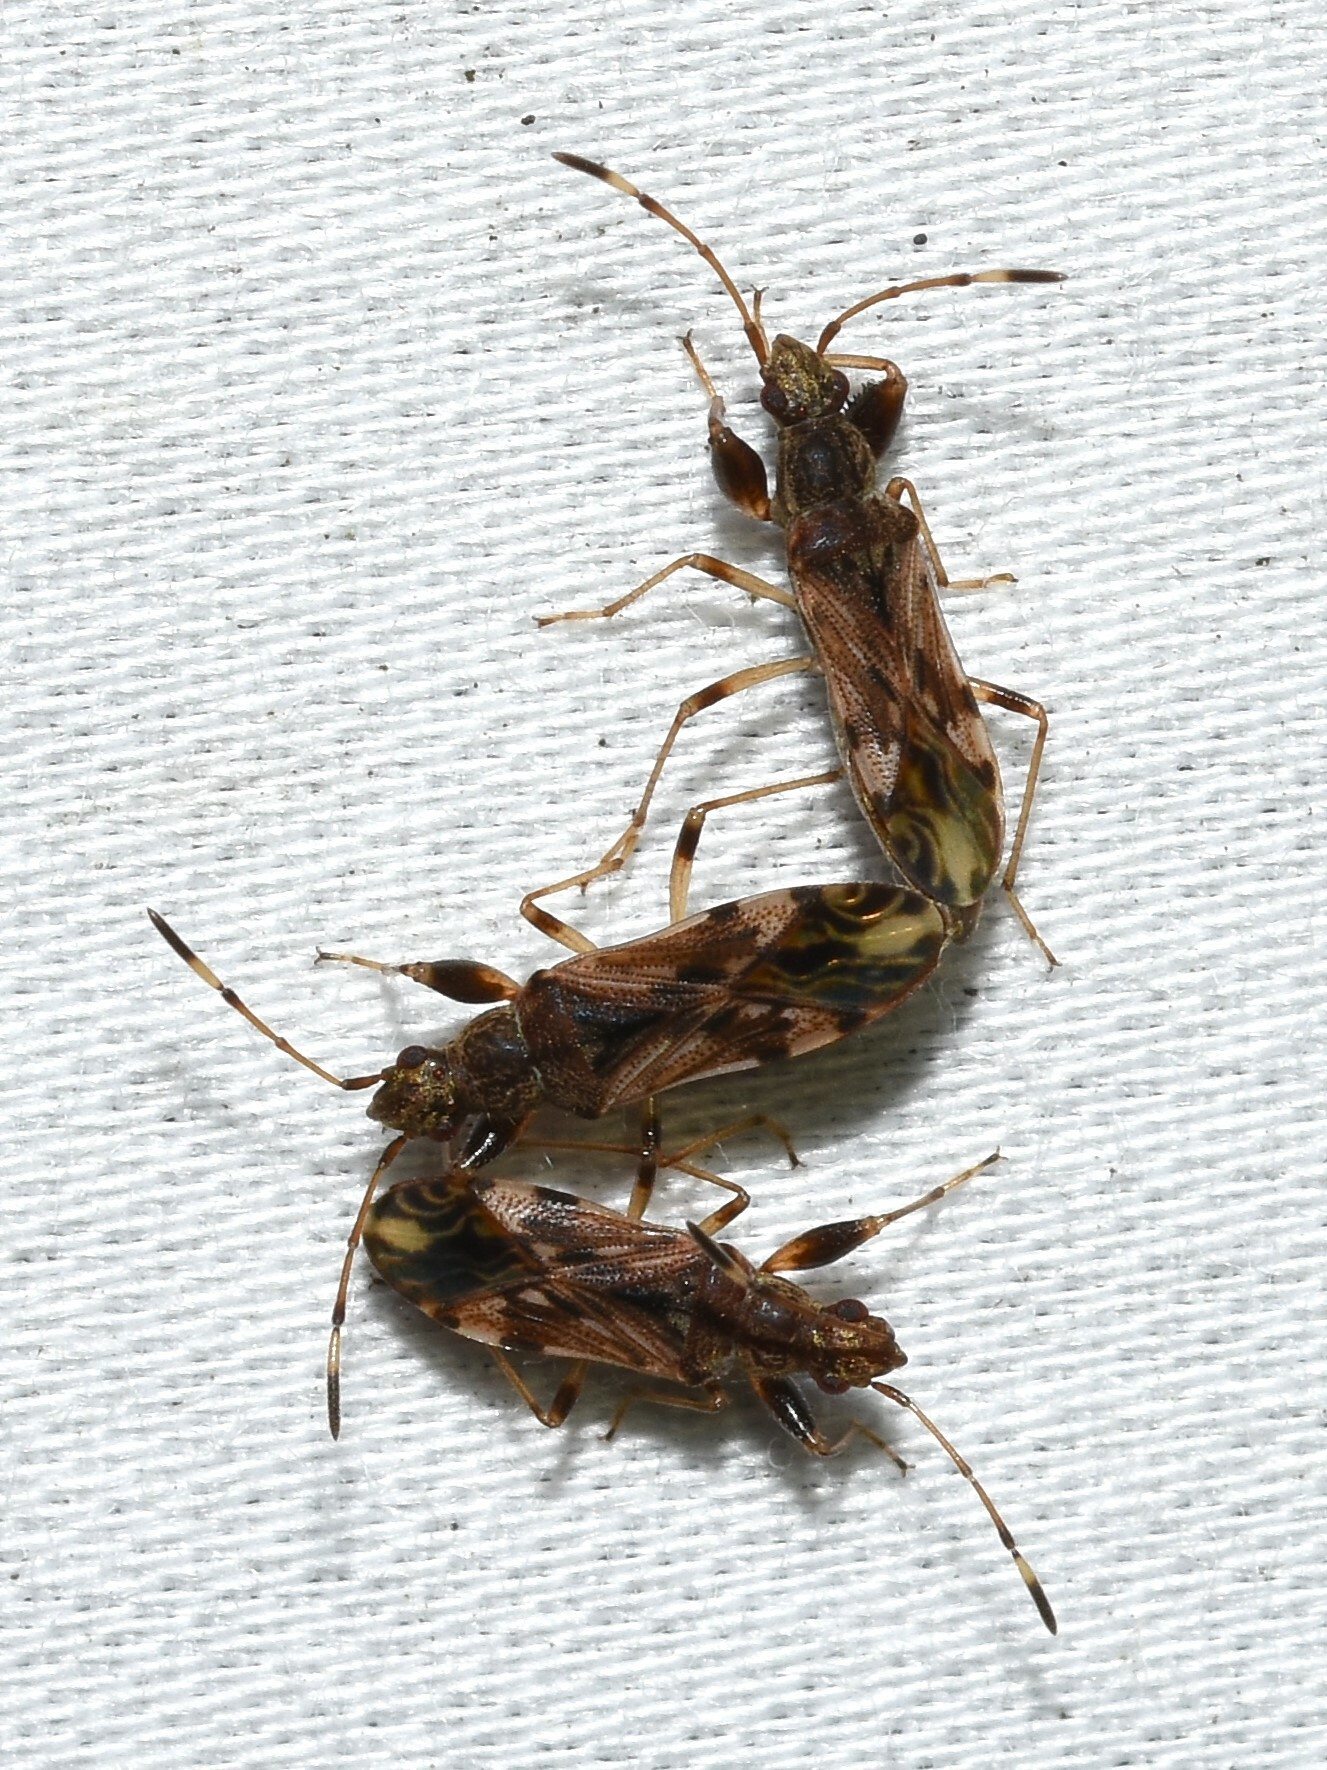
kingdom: Animalia
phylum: Arthropoda
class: Insecta
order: Hemiptera
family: Rhyparochromidae
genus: Neopamera
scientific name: Neopamera albocincta
